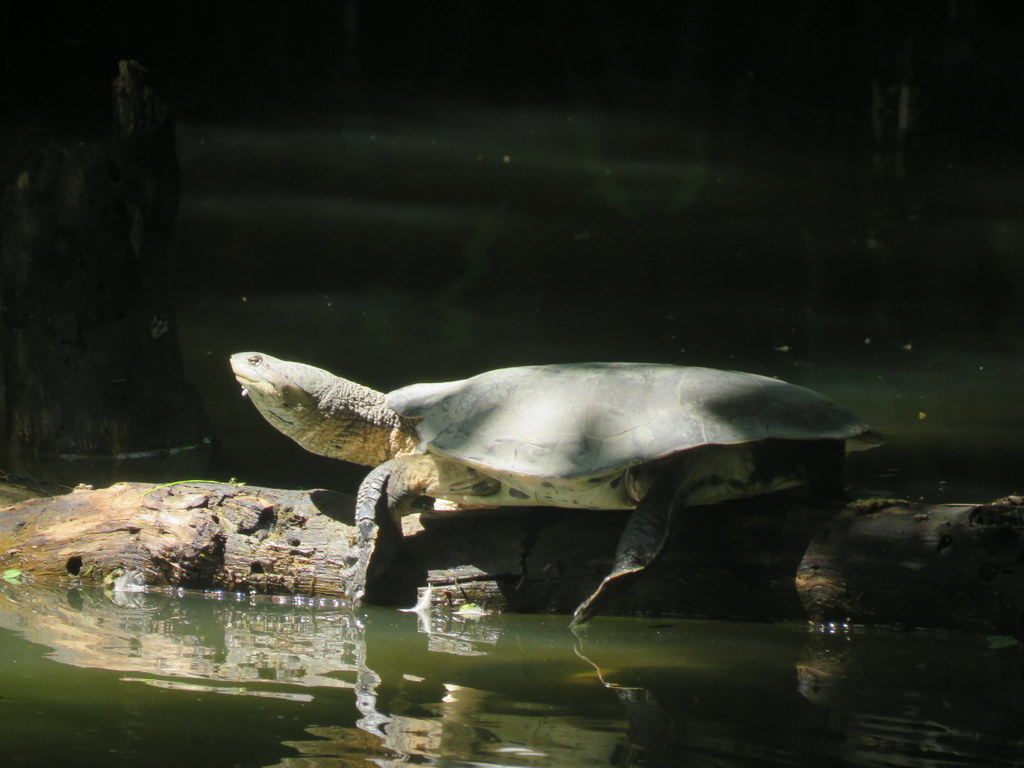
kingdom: Animalia
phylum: Chordata
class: Testudines
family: Chelidae
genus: Phrynops
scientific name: Phrynops hilarii
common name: Side-necked turtle of saint hillaire
